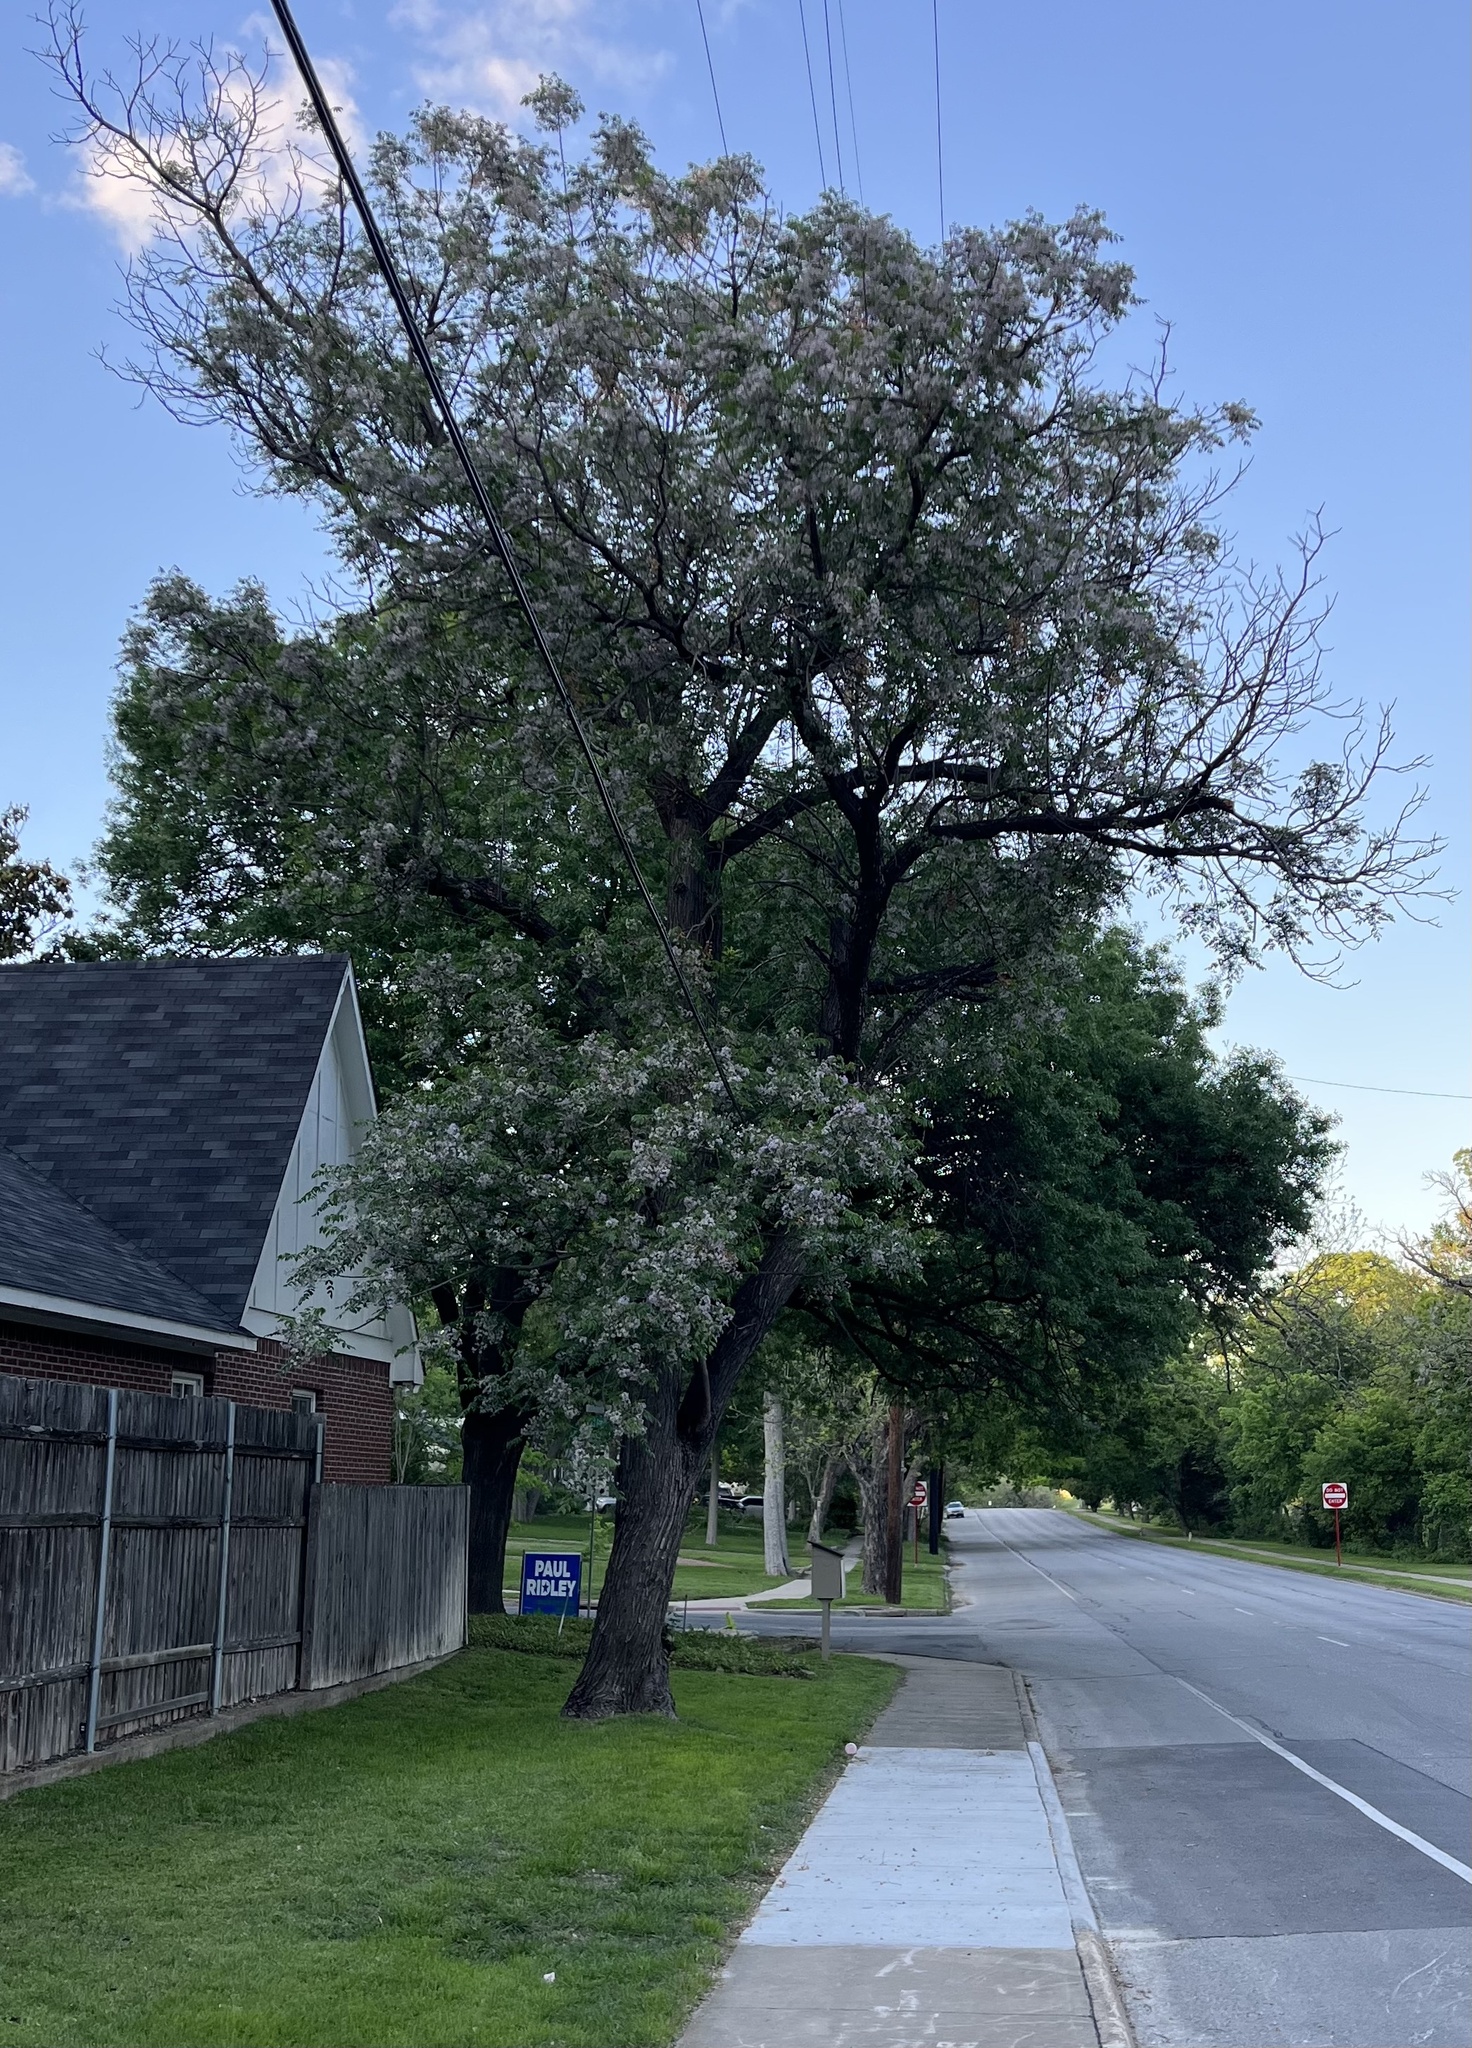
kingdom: Plantae
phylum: Tracheophyta
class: Magnoliopsida
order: Sapindales
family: Meliaceae
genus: Melia
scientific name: Melia azedarach
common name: Chinaberrytree
